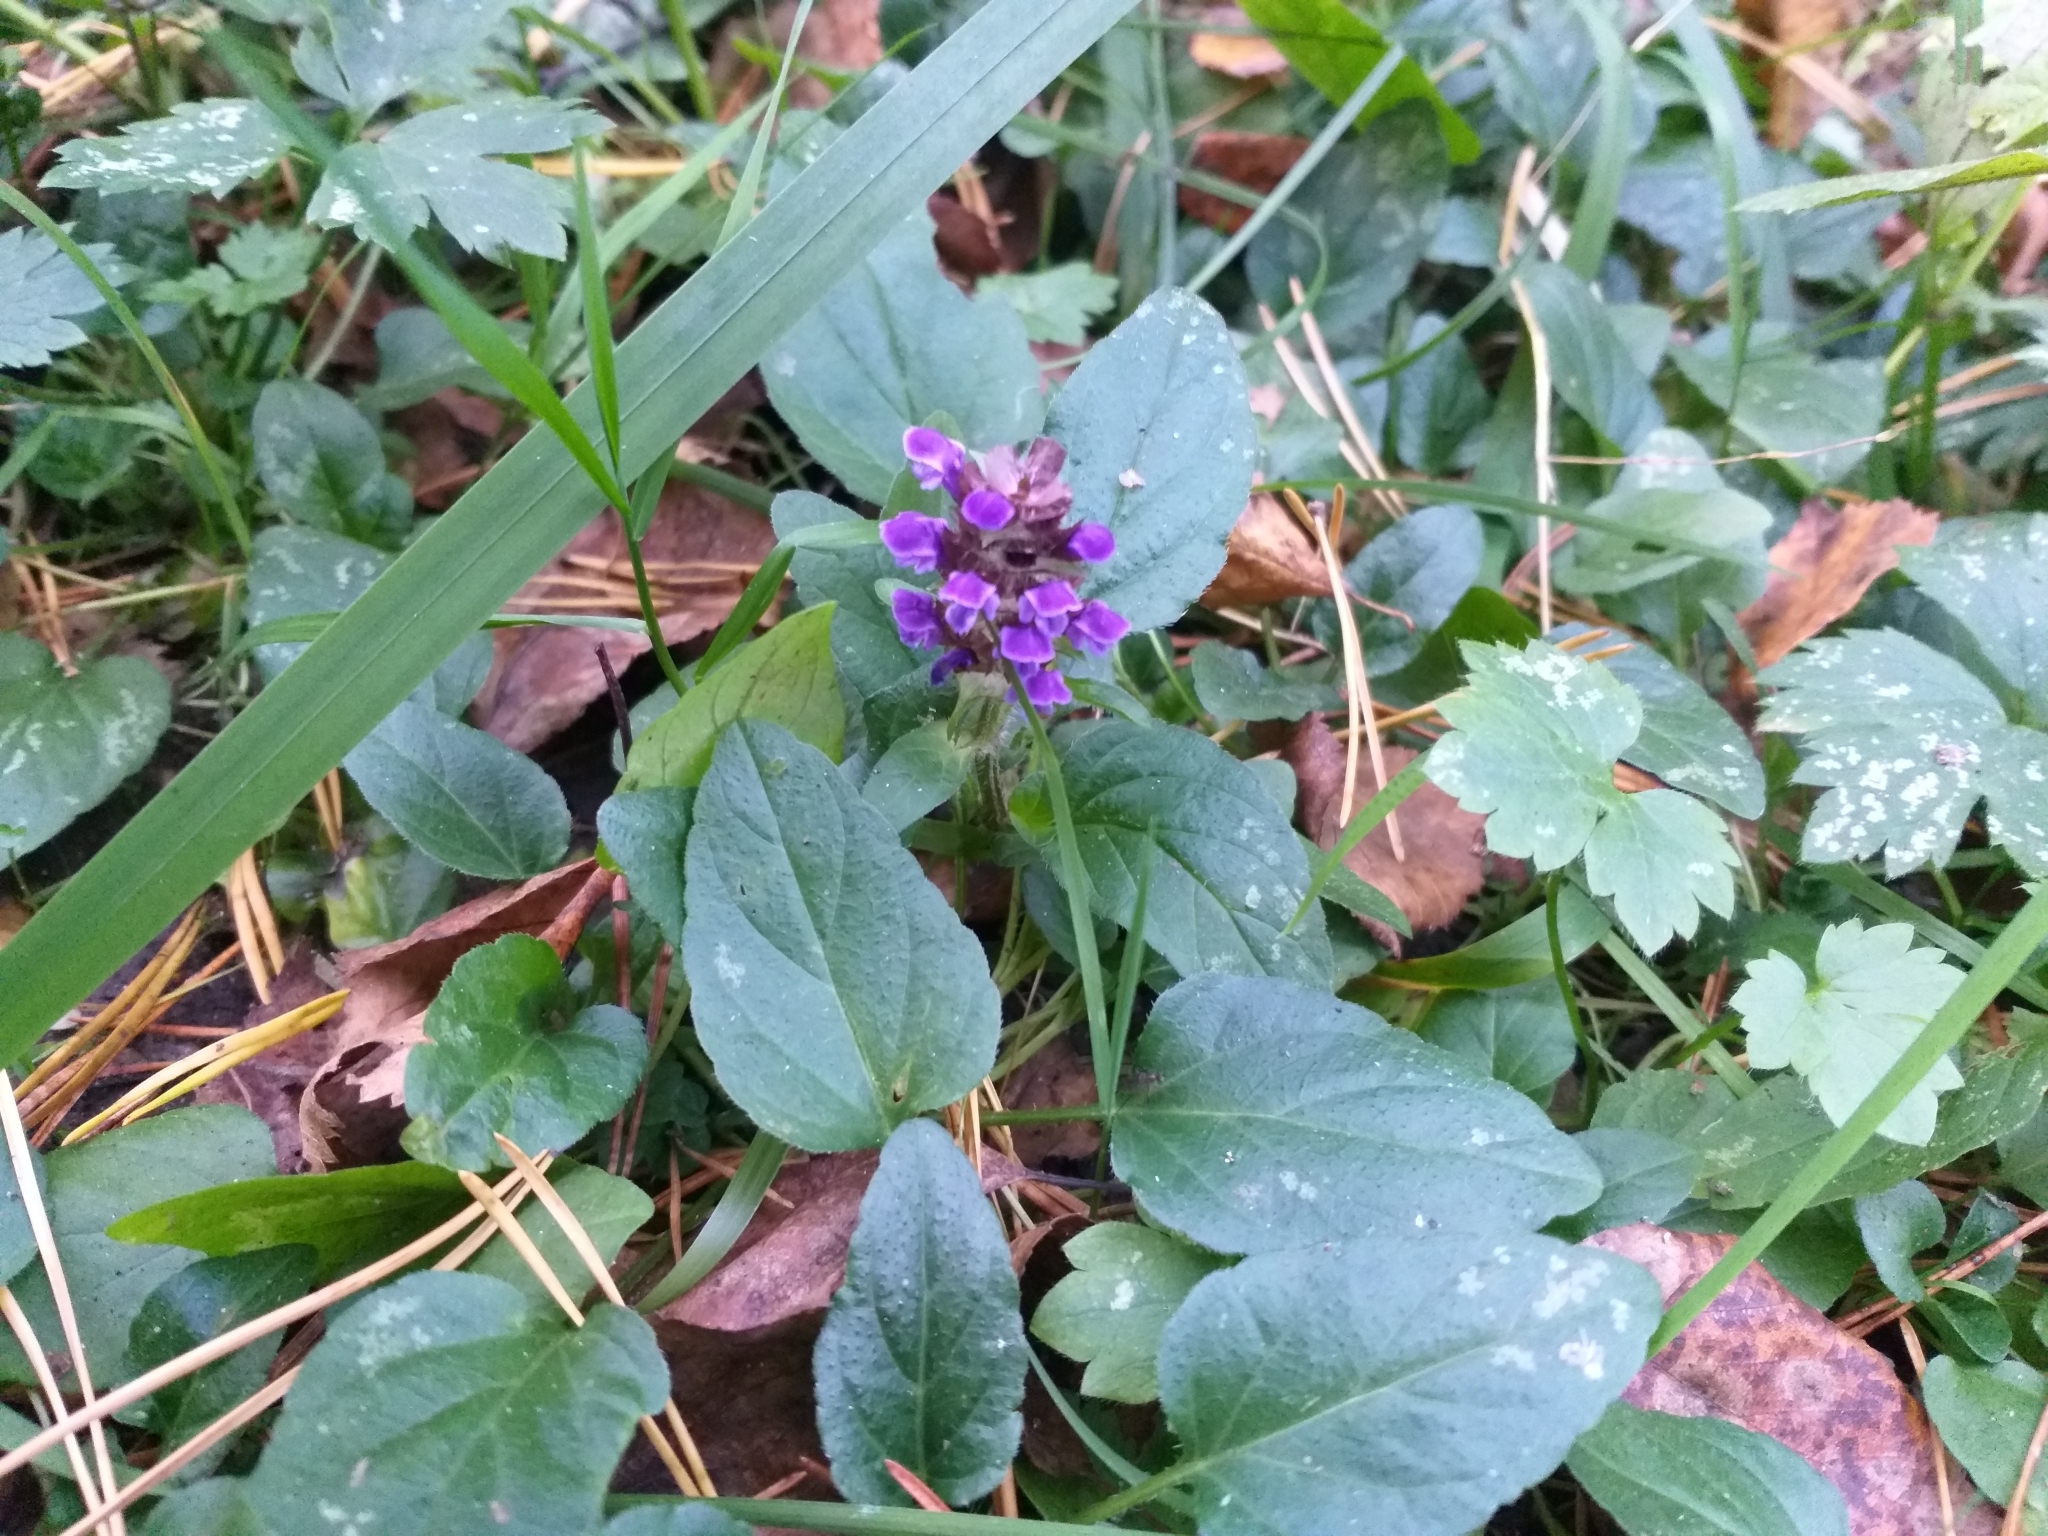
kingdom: Plantae
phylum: Tracheophyta
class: Magnoliopsida
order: Lamiales
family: Lamiaceae
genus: Prunella
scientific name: Prunella vulgaris
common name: Heal-all
